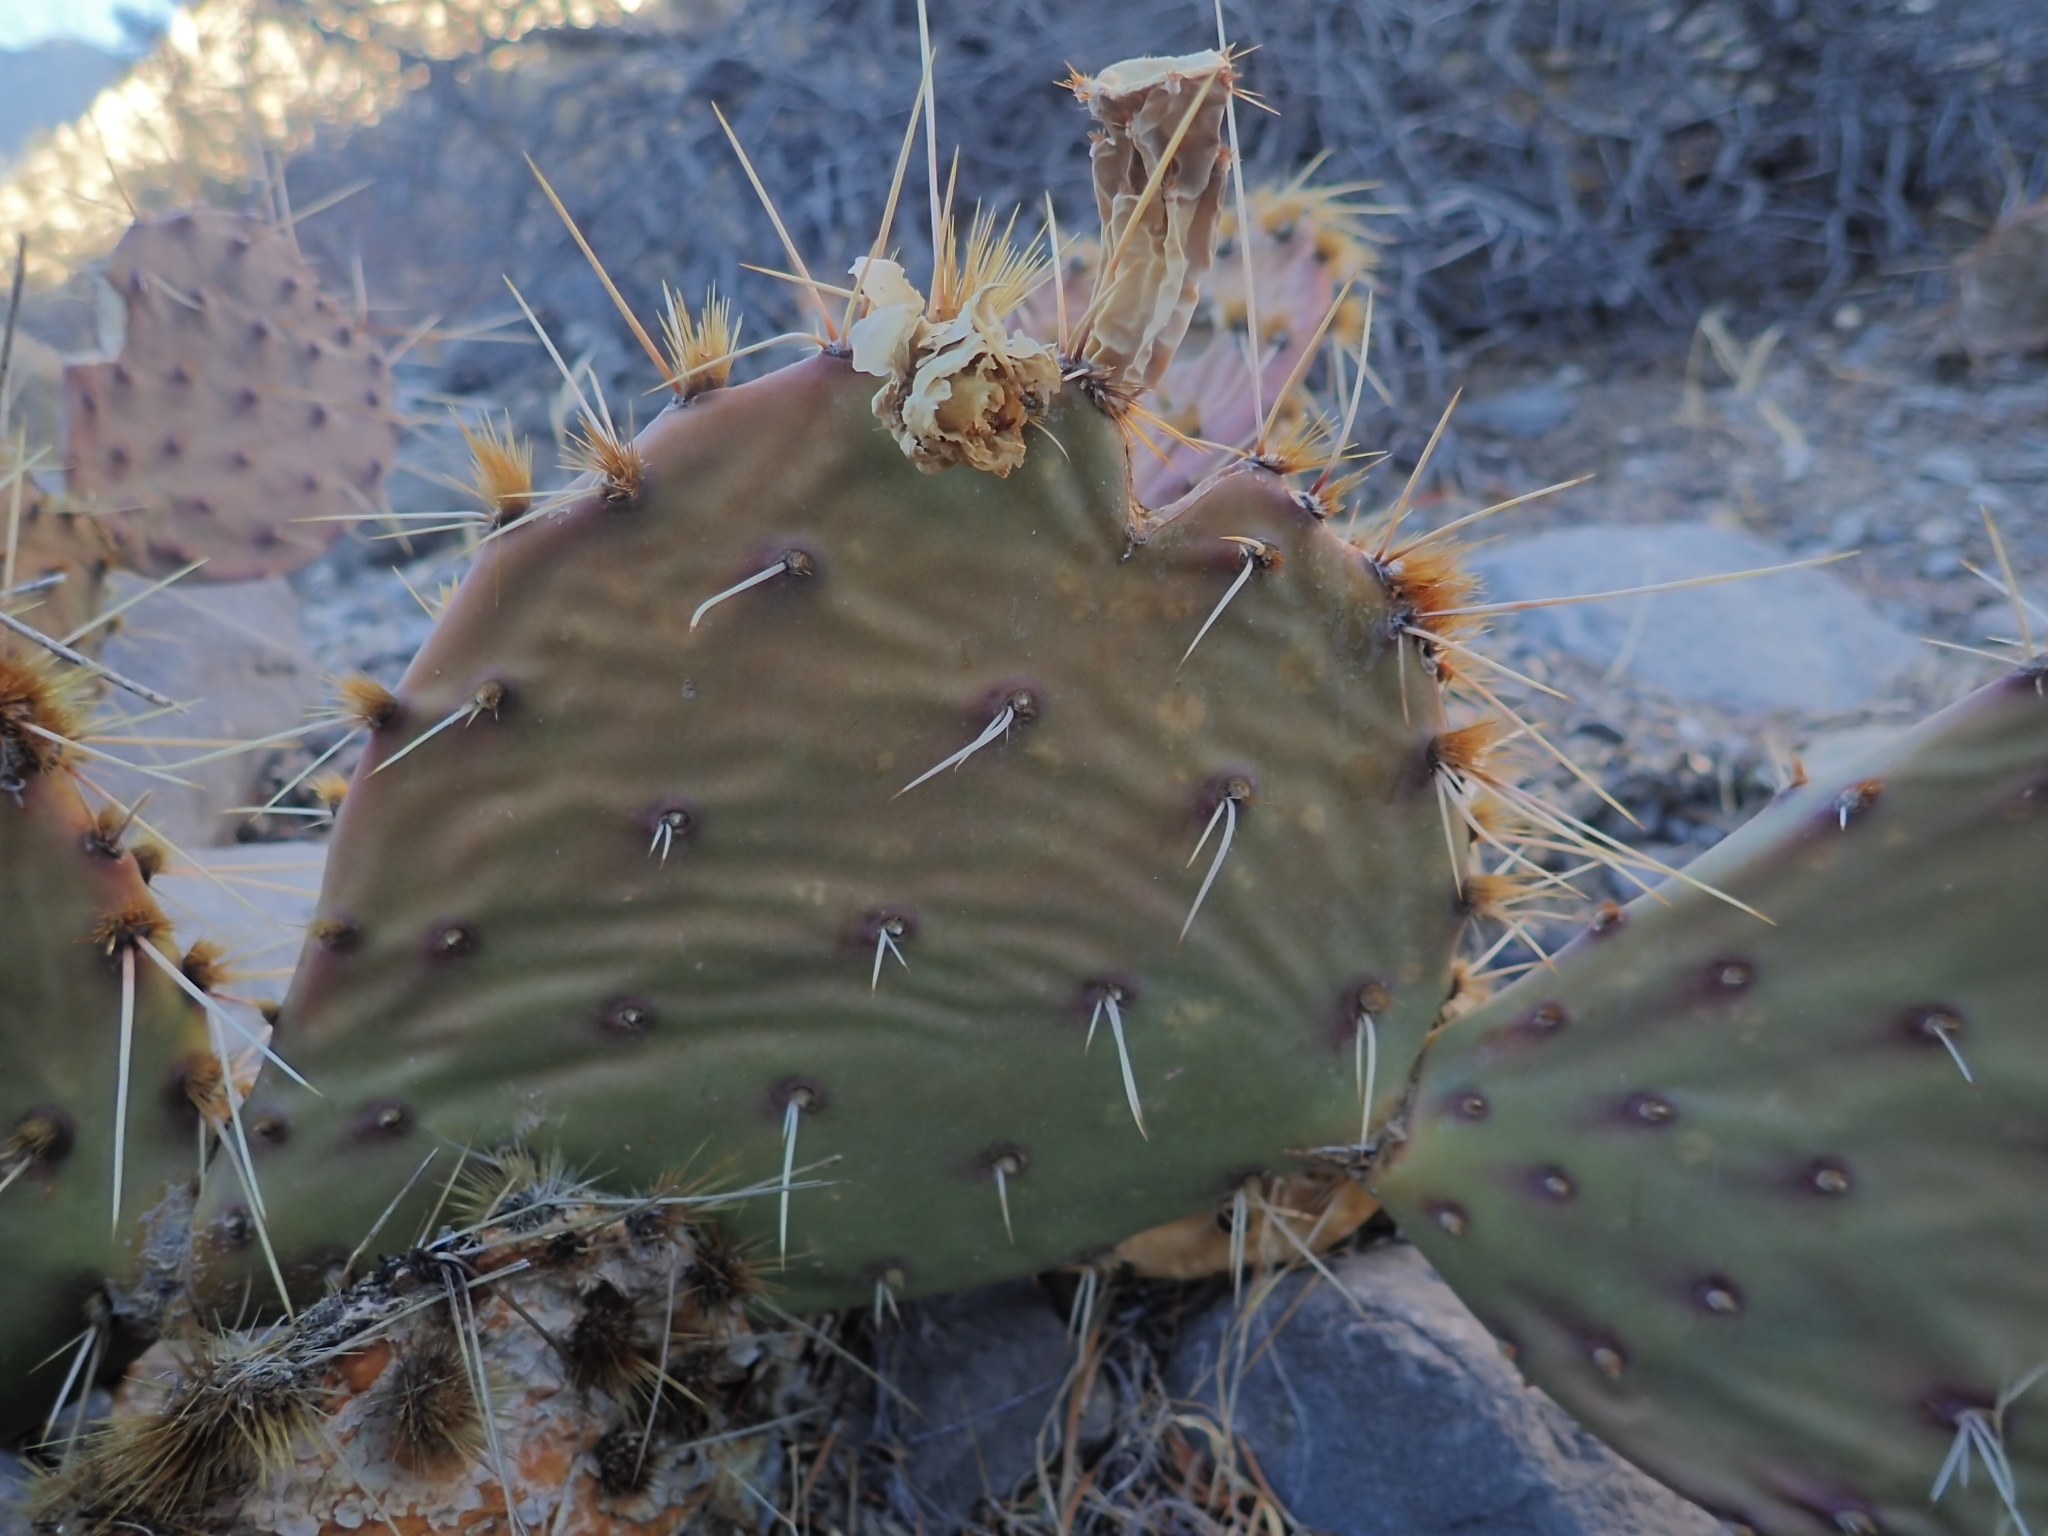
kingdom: Plantae
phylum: Tracheophyta
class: Magnoliopsida
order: Caryophyllales
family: Cactaceae
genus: Opuntia
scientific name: Opuntia phaeacantha
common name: New mexico prickly-pear
